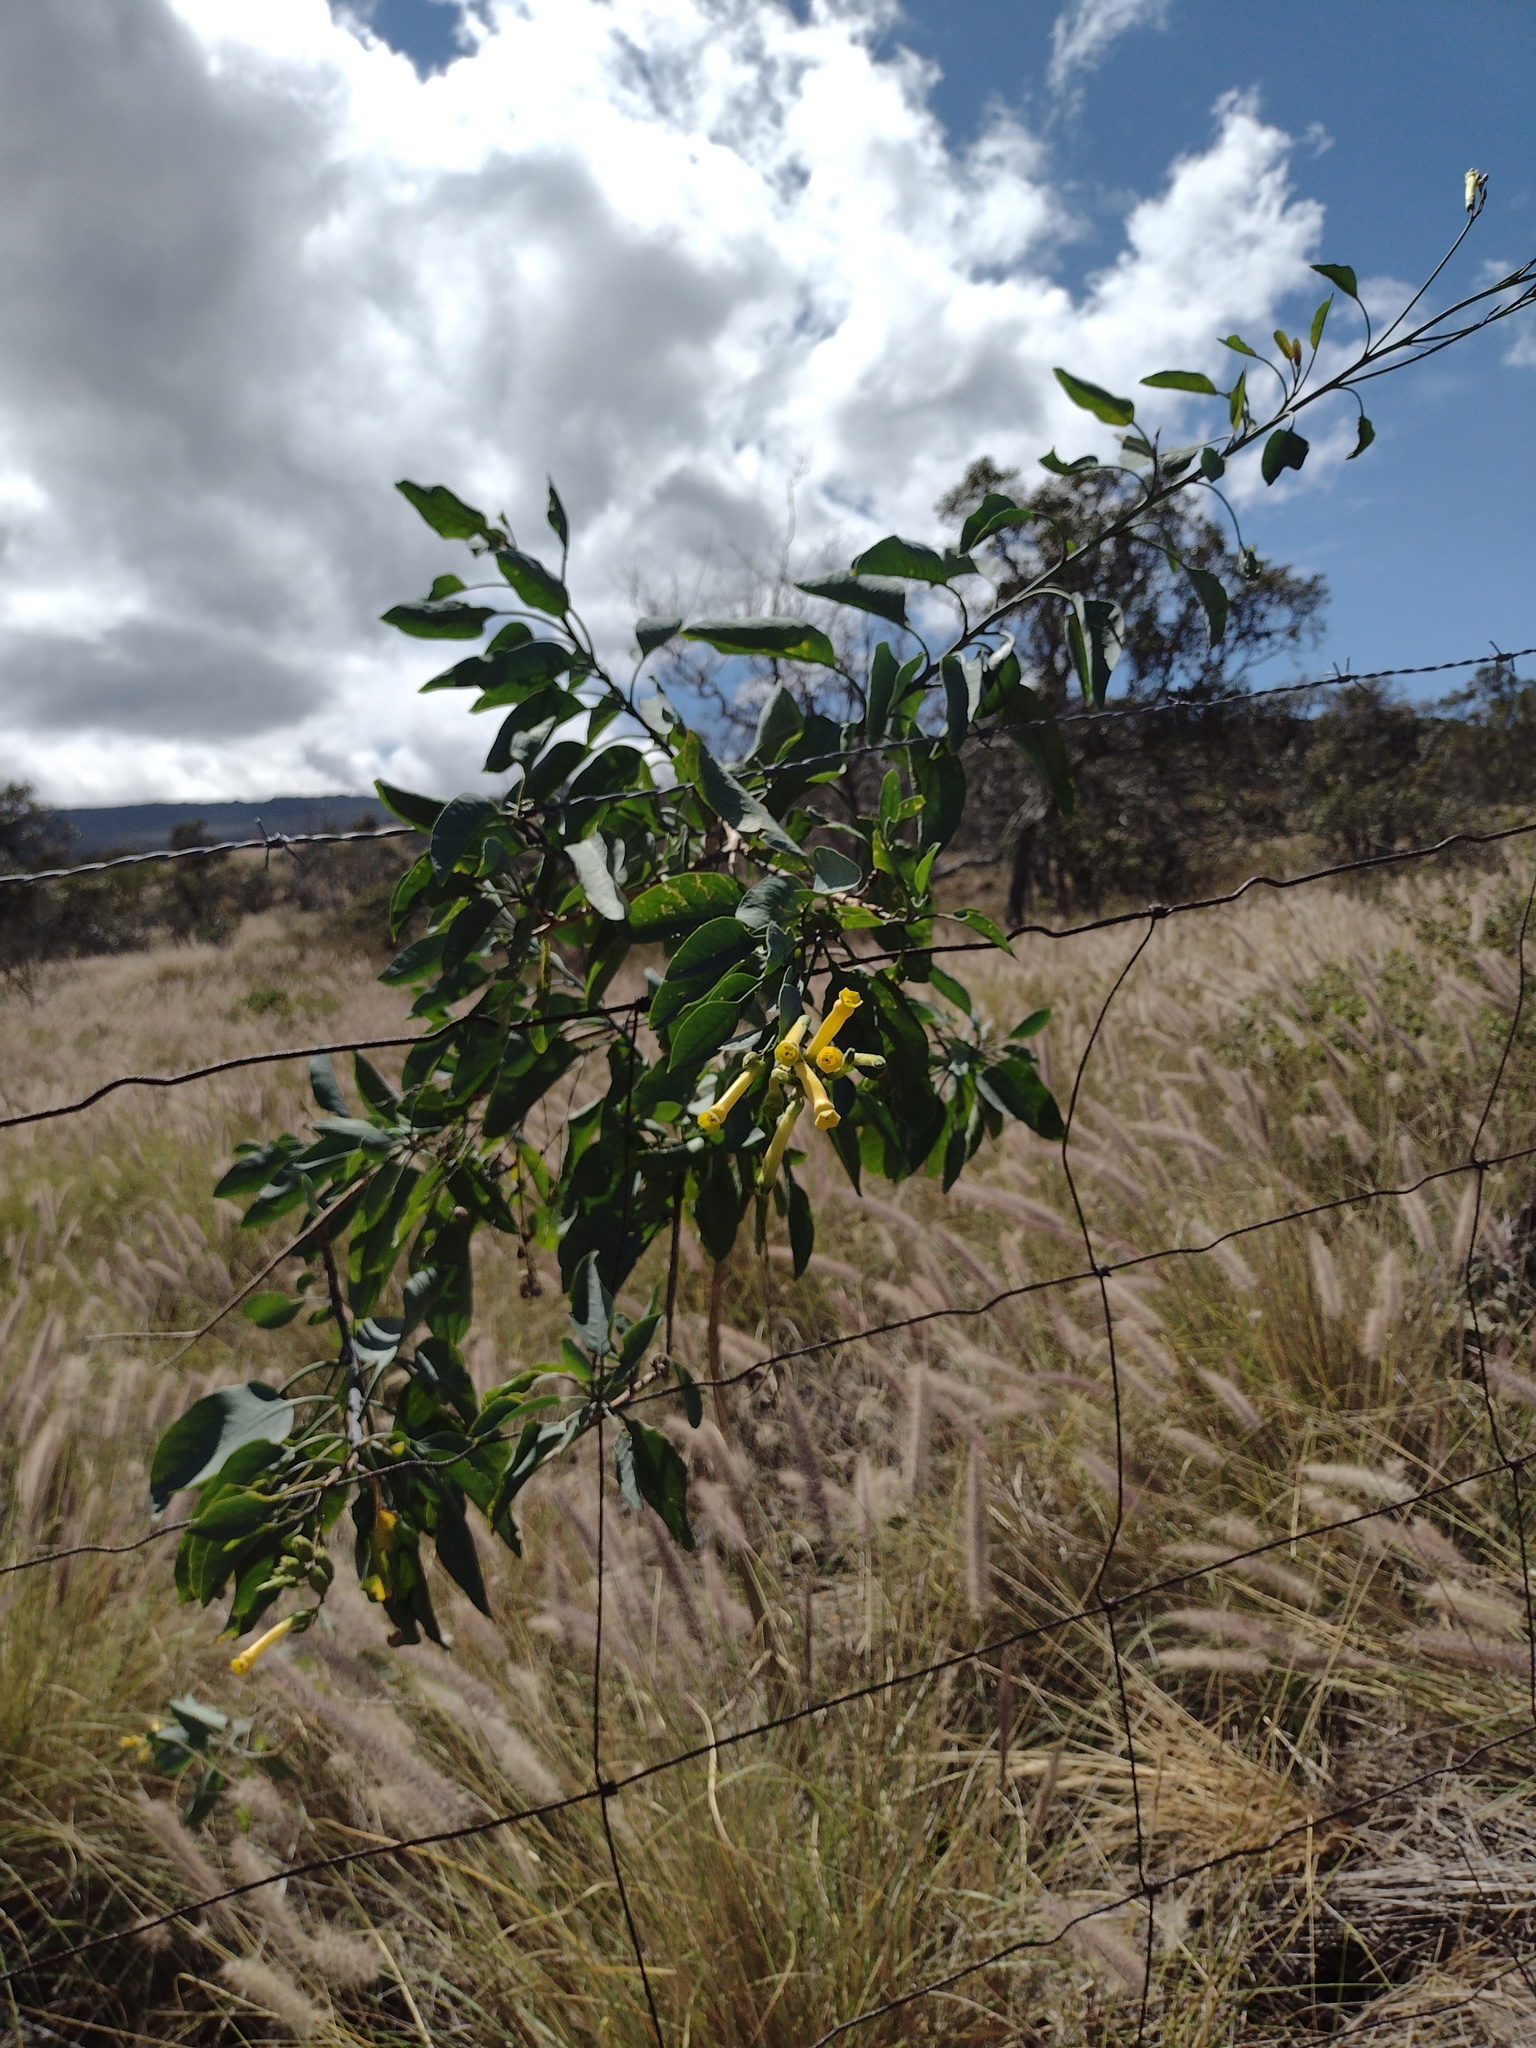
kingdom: Plantae
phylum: Tracheophyta
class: Magnoliopsida
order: Solanales
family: Solanaceae
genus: Nicotiana
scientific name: Nicotiana glauca
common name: Tree tobacco
